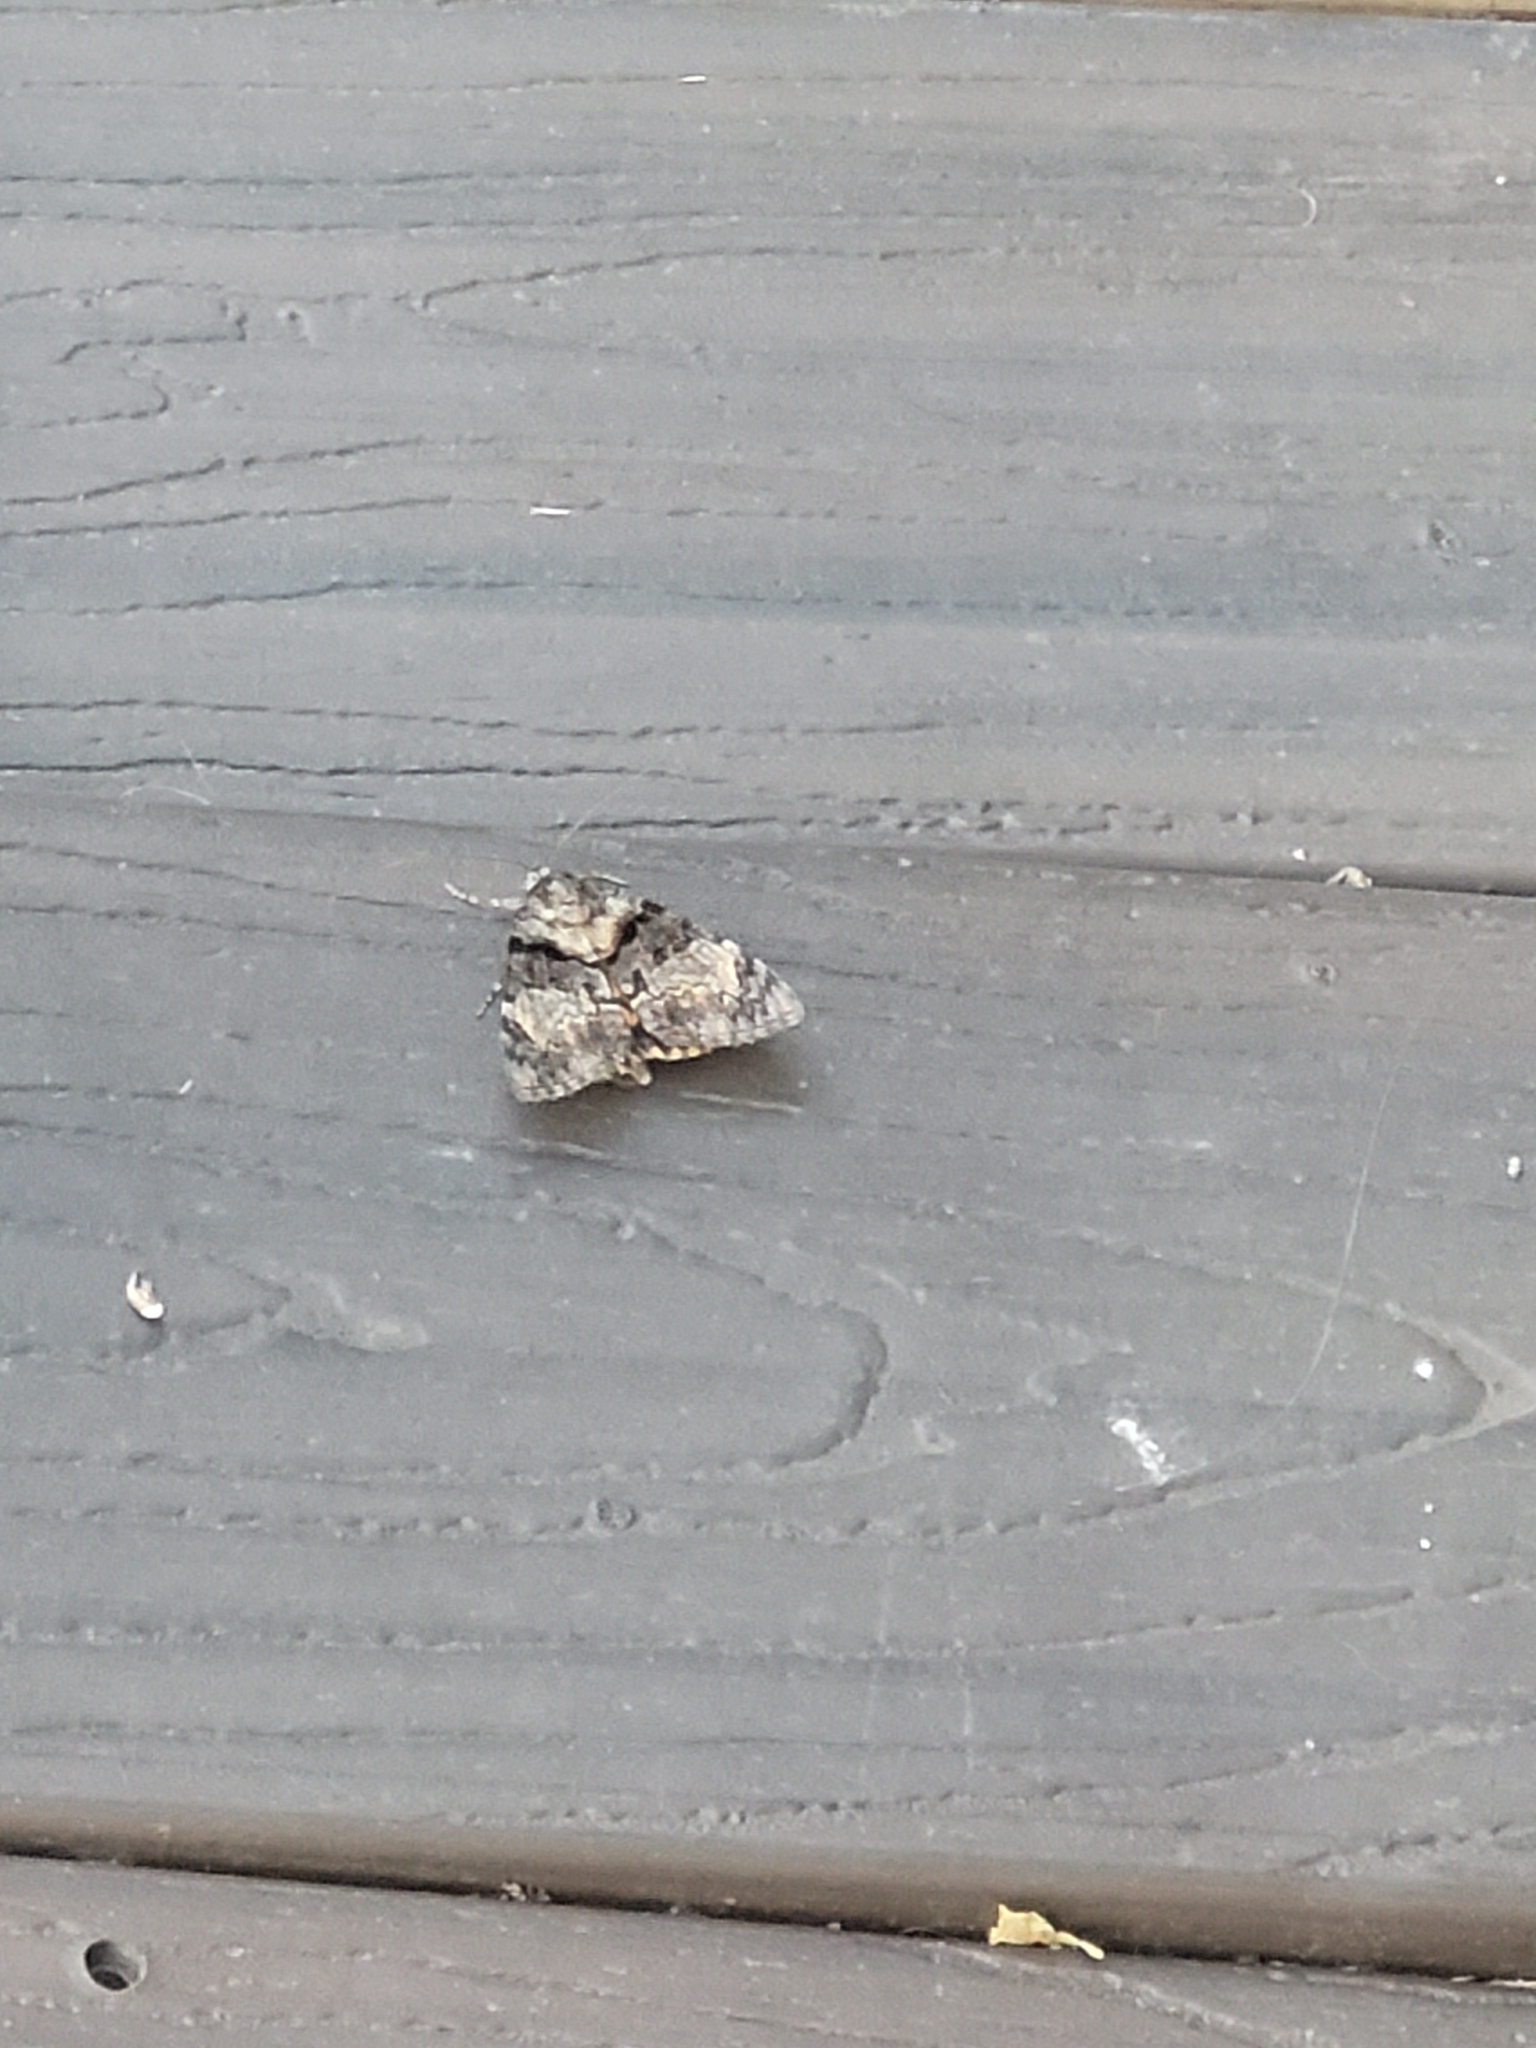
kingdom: Animalia
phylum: Arthropoda
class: Insecta
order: Lepidoptera
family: Erebidae
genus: Catocala
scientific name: Catocala desdemona
